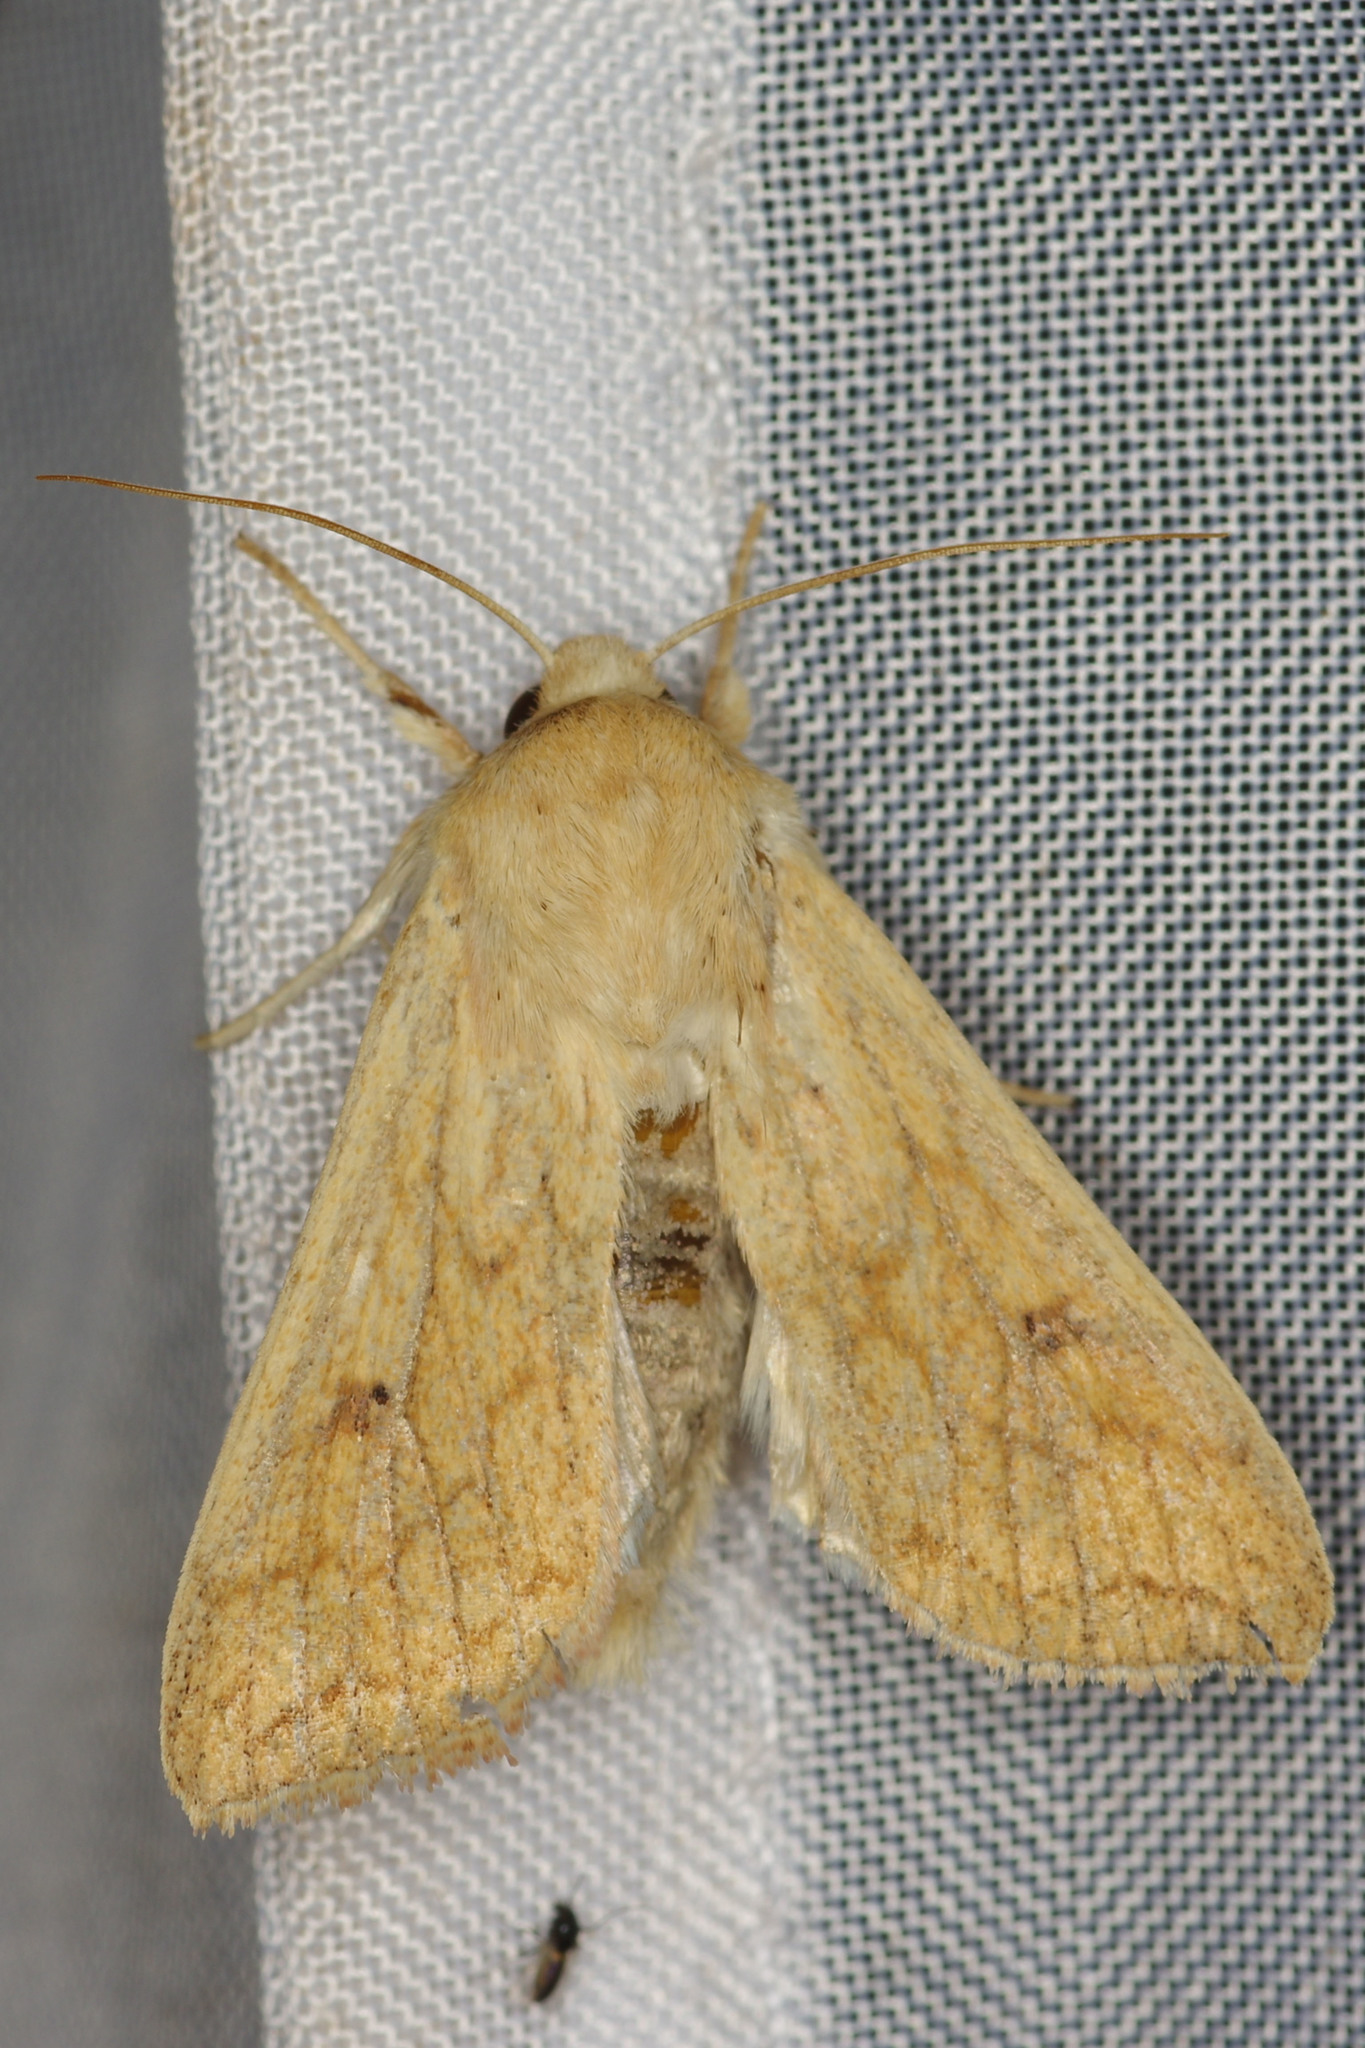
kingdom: Animalia
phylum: Arthropoda
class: Insecta
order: Lepidoptera
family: Noctuidae
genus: Mythimna
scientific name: Mythimna vitellina
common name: Delicate
